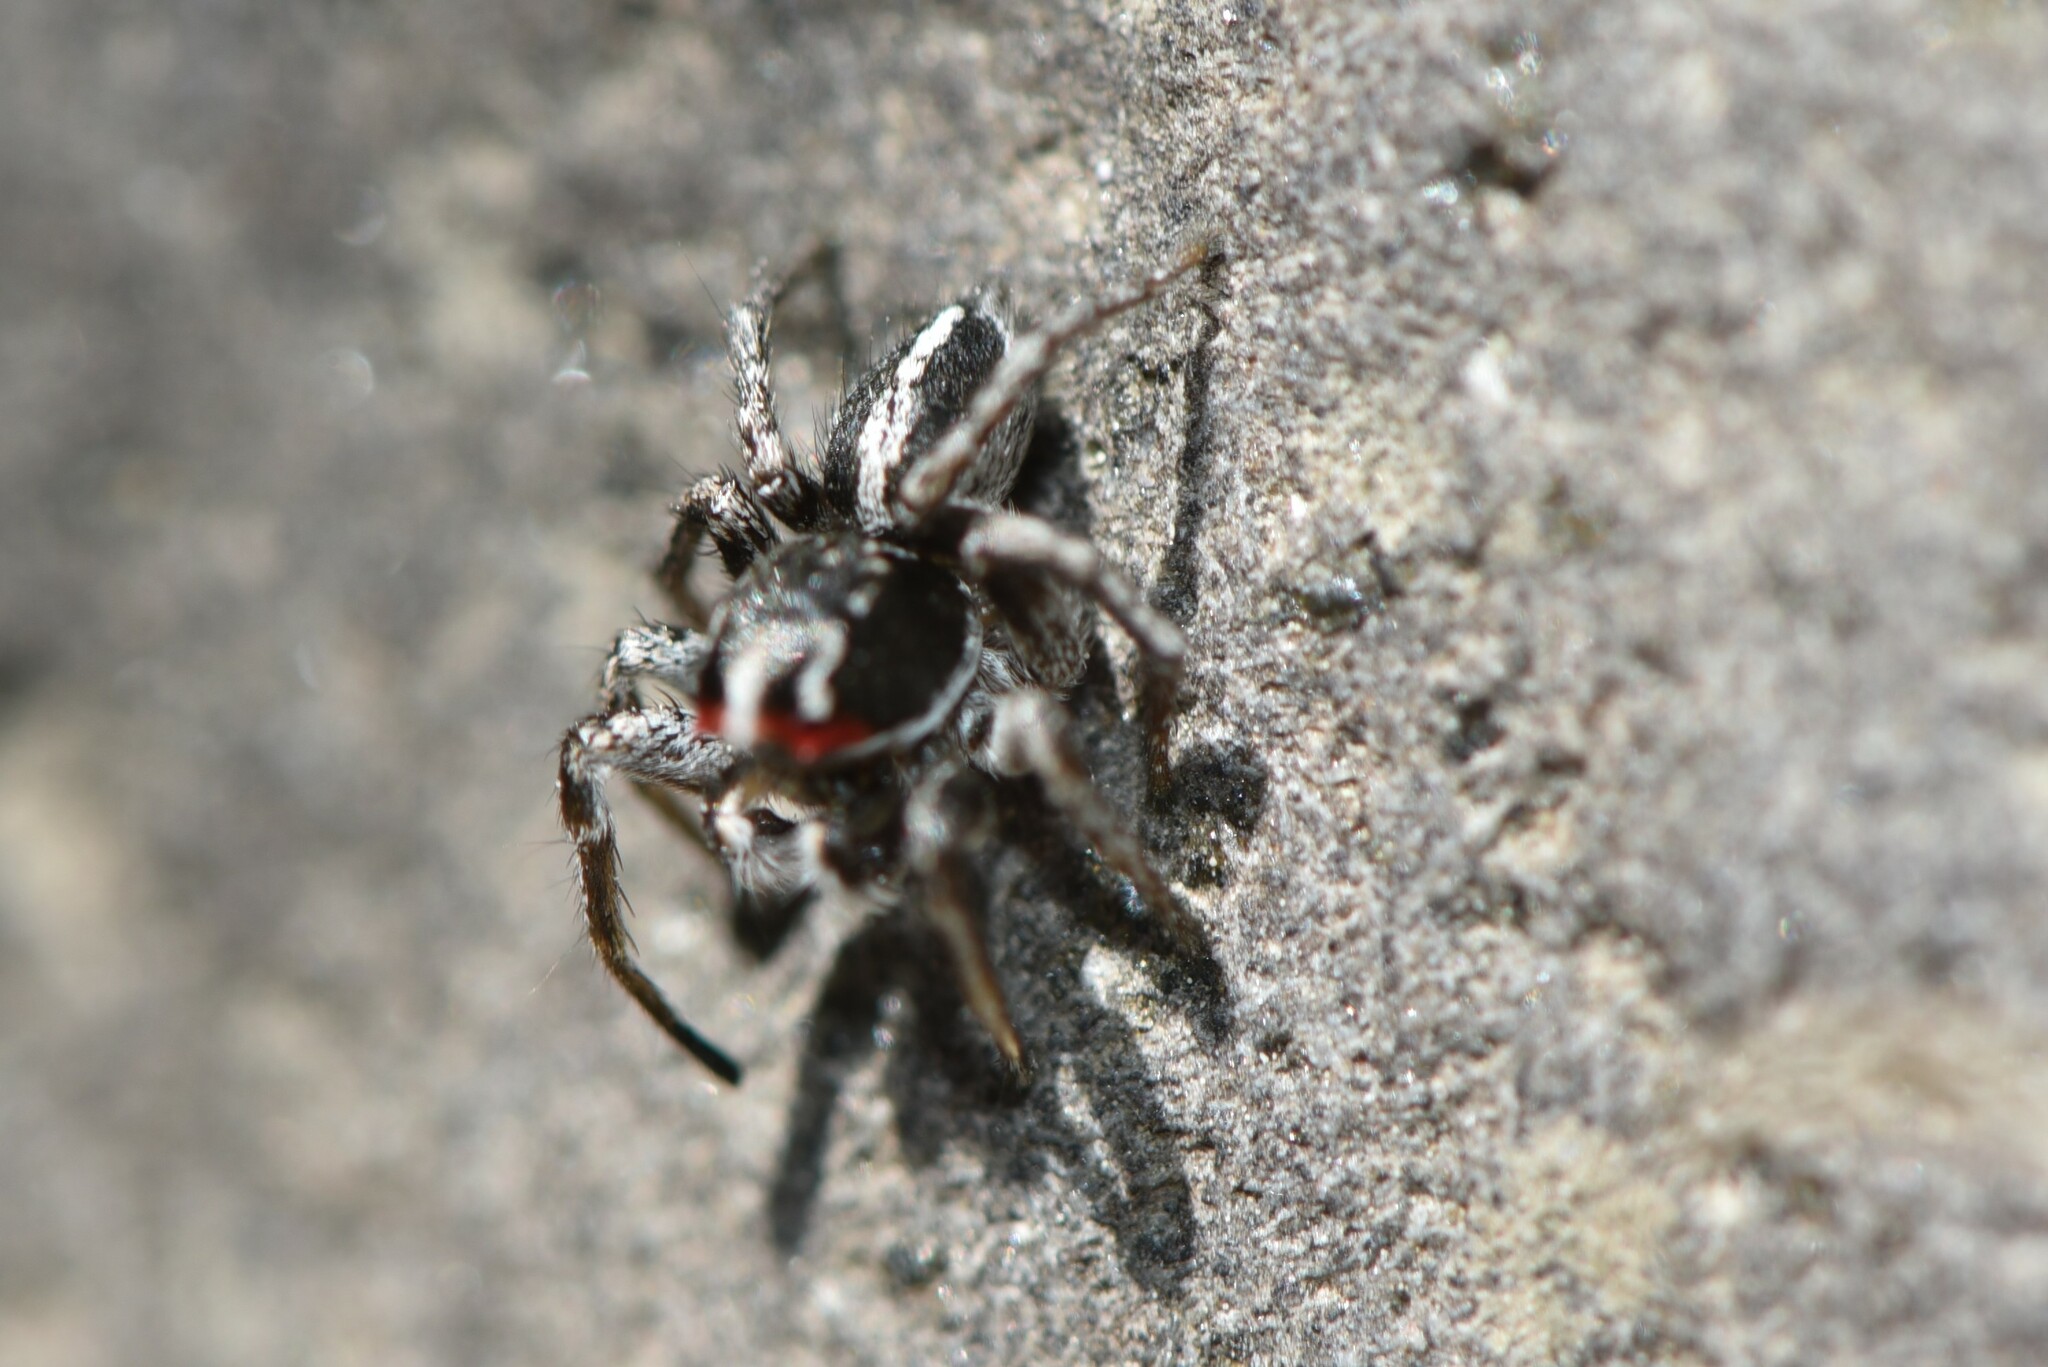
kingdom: Animalia
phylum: Arthropoda
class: Arachnida
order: Araneae
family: Salticidae
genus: Habronattus
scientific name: Habronattus sansoni
